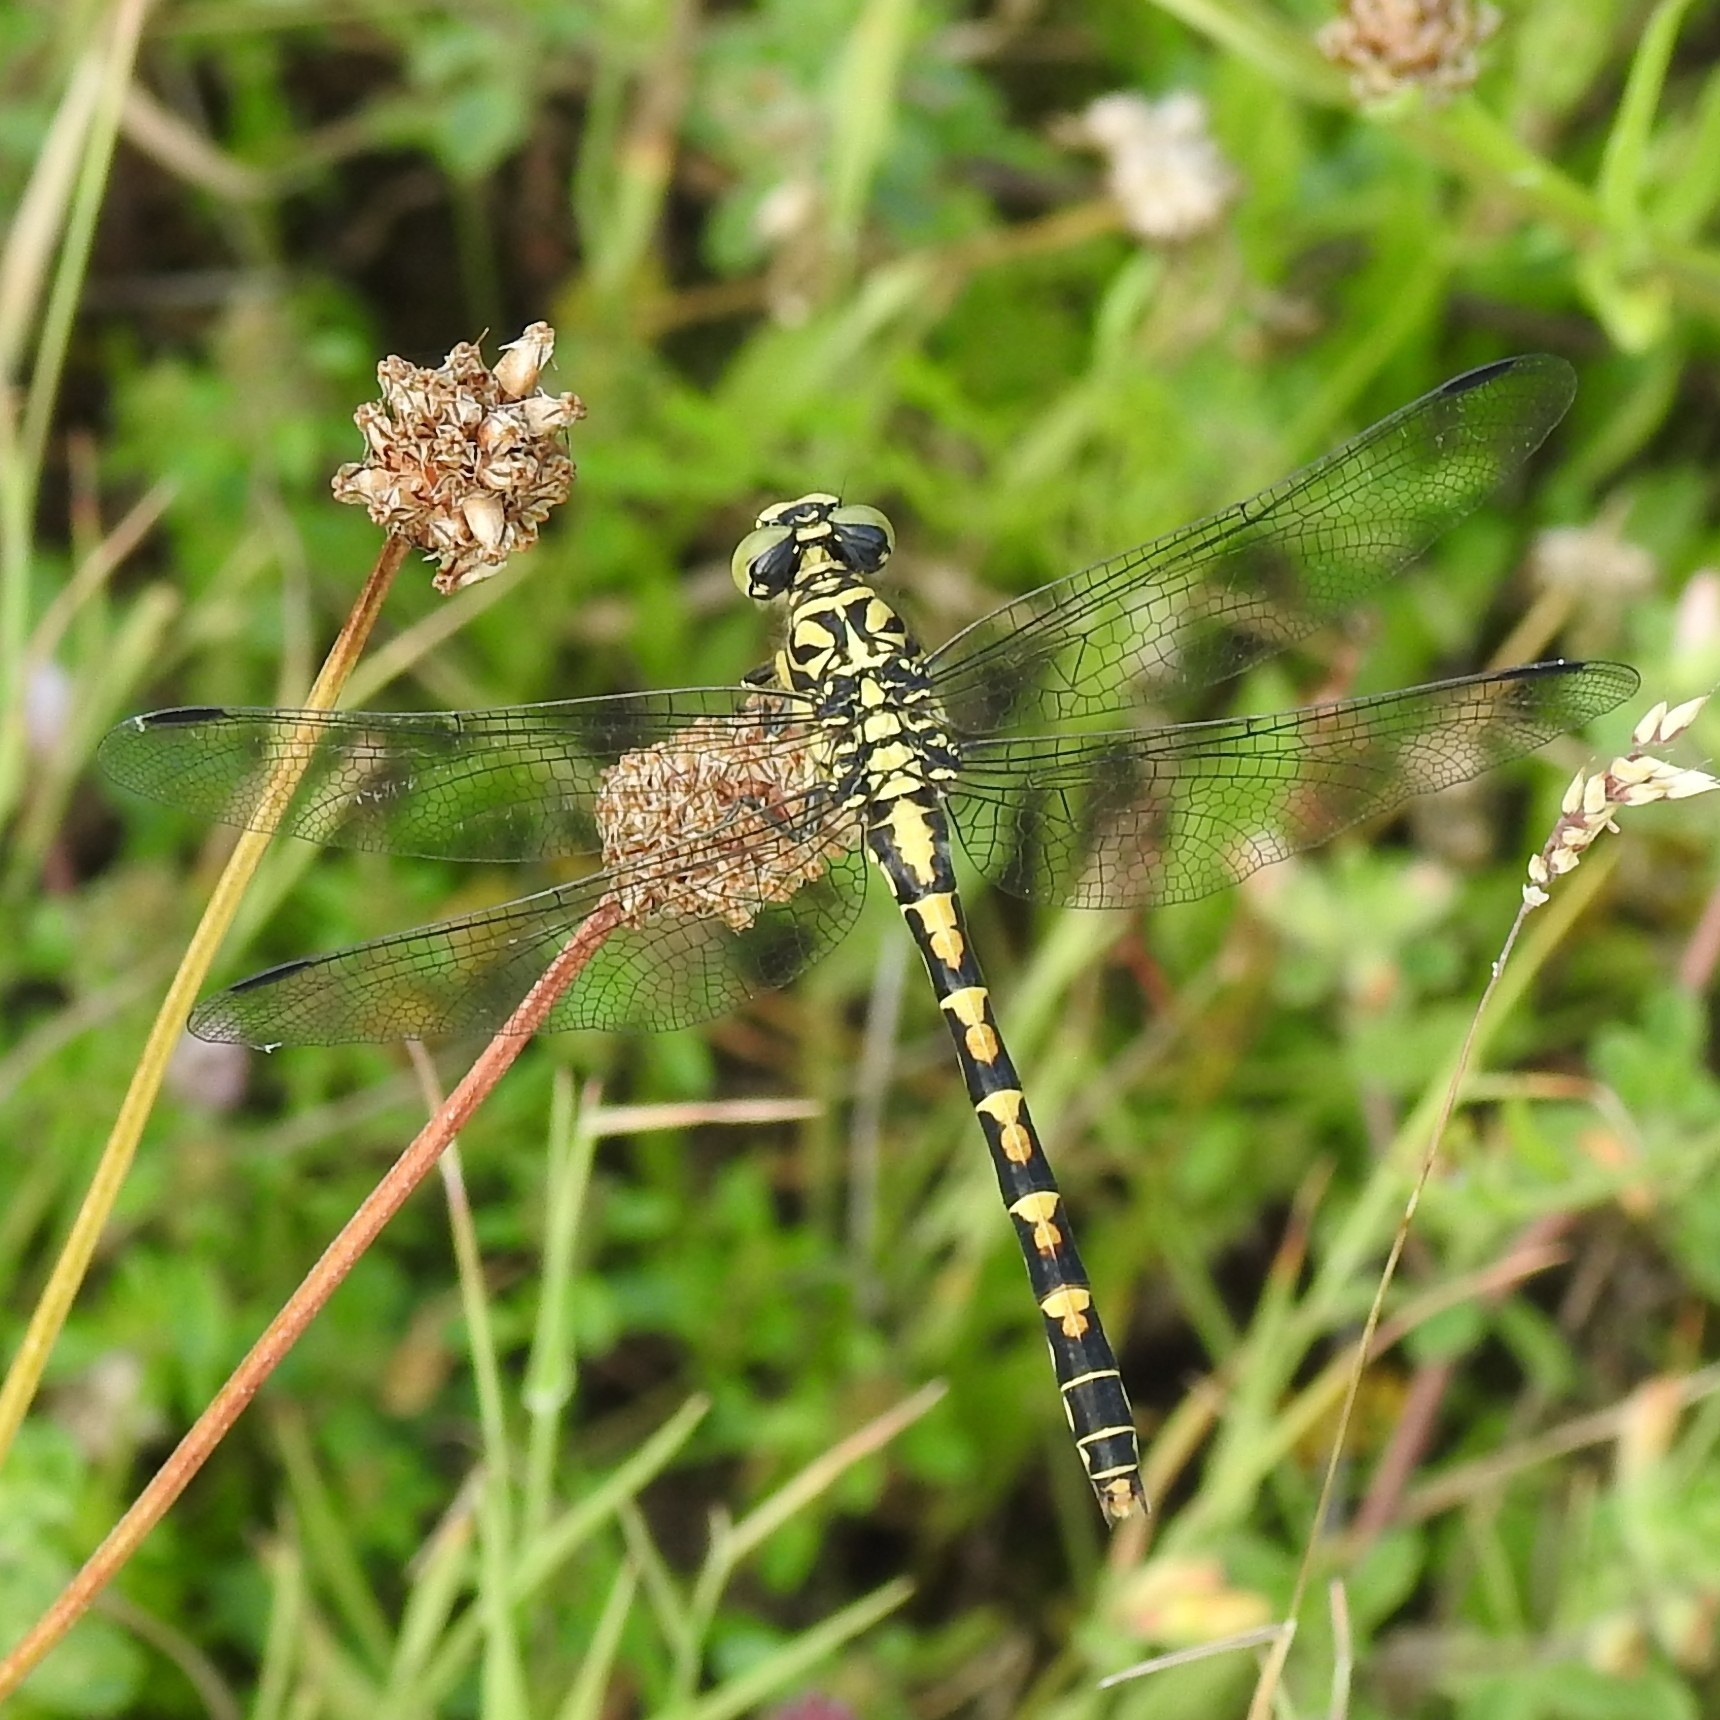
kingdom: Animalia
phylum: Arthropoda
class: Insecta
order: Odonata
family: Gomphidae
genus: Onychogomphus
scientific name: Onychogomphus forcipatus
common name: Small pincertail
